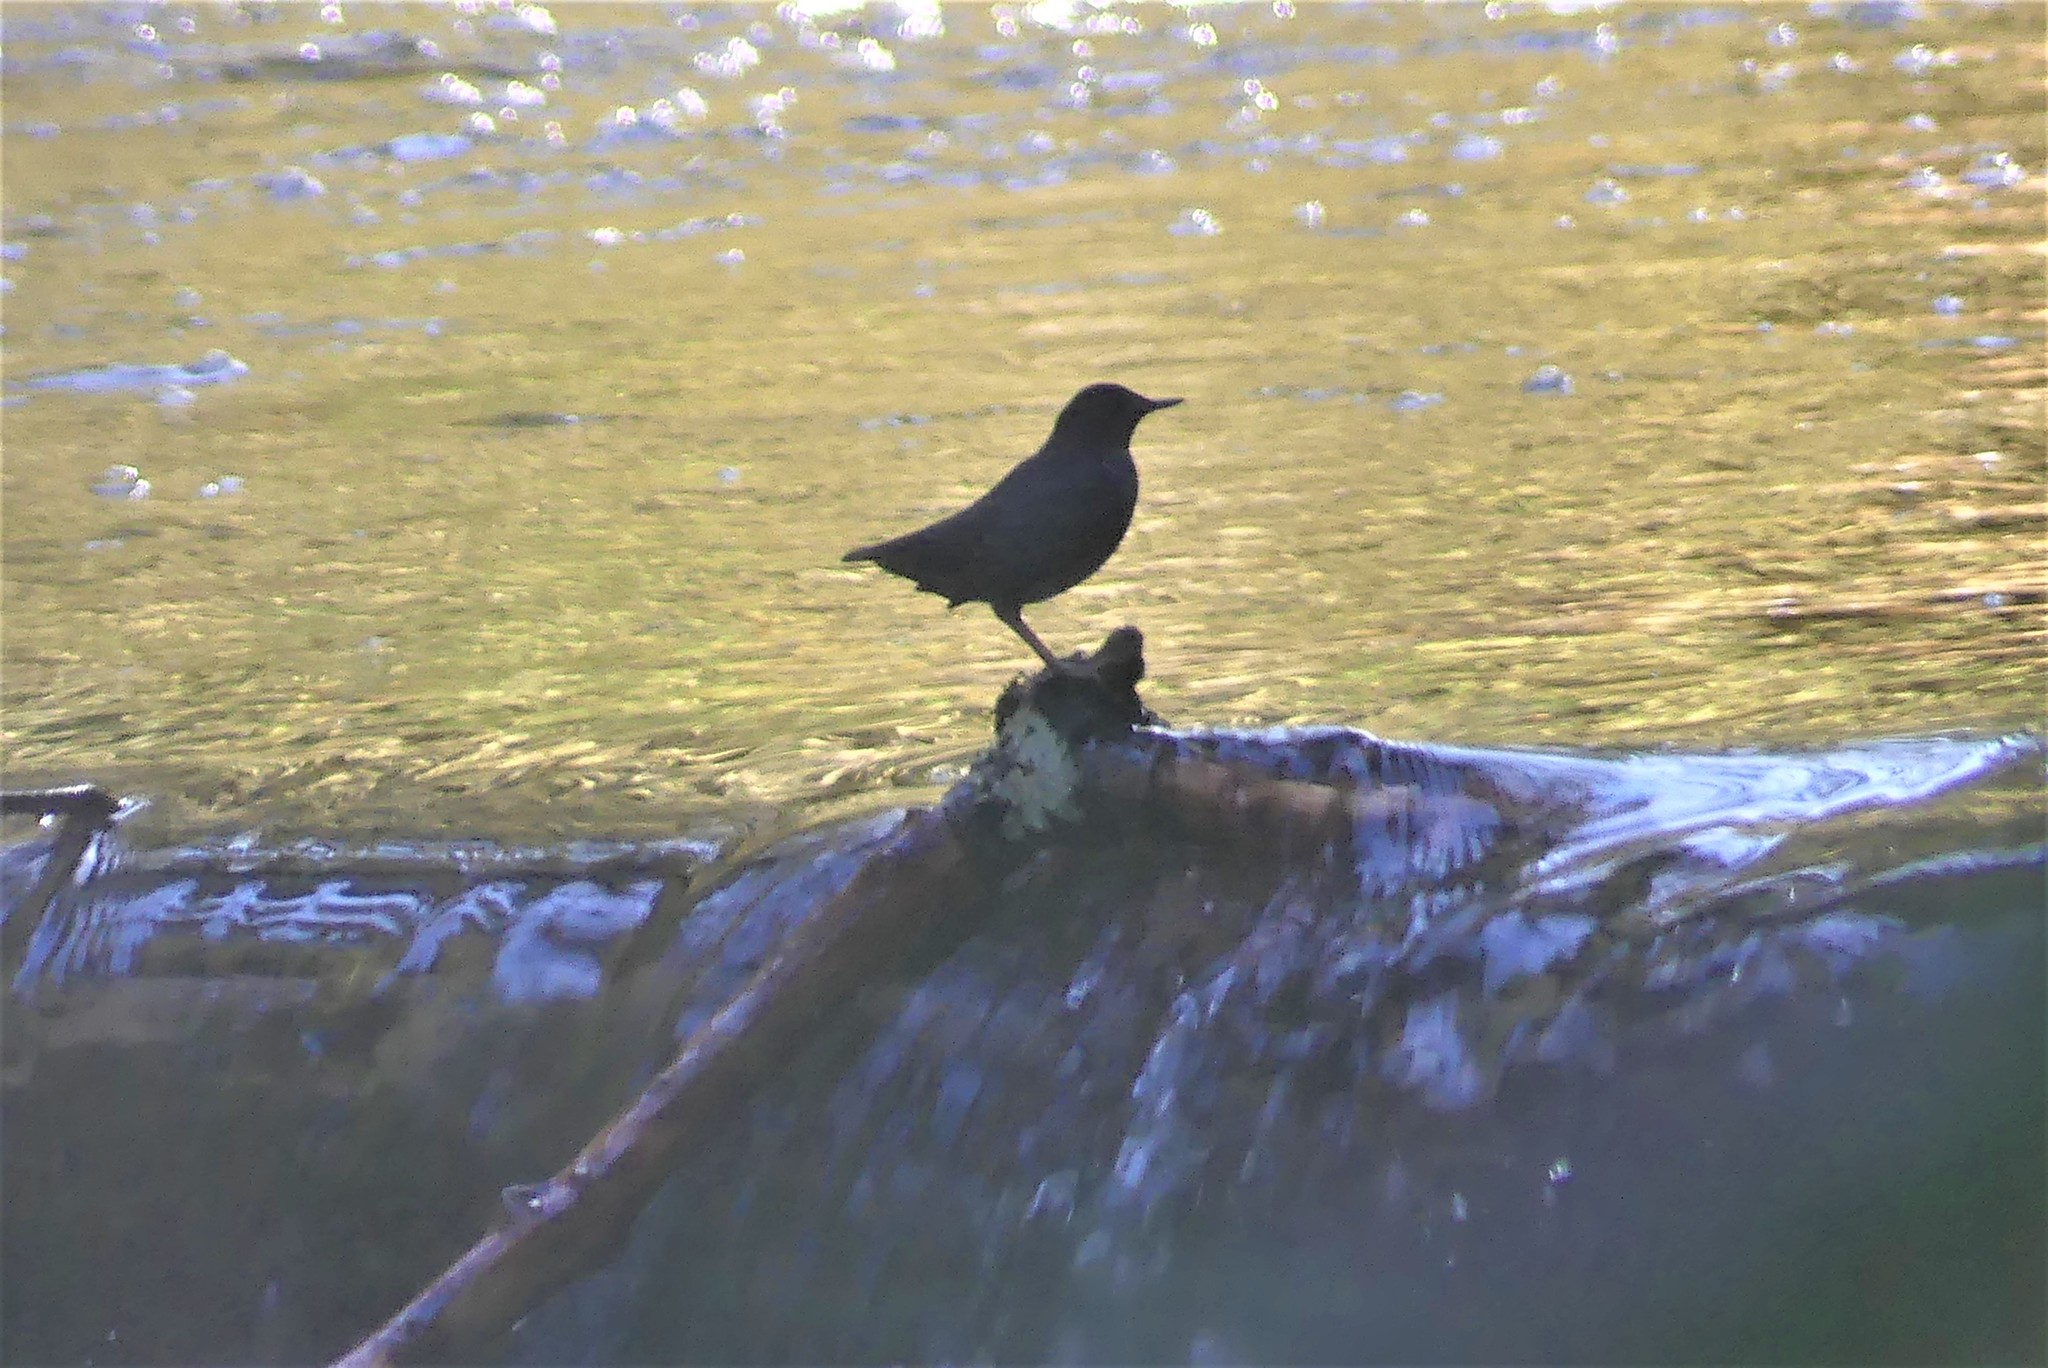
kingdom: Animalia
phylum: Chordata
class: Aves
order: Passeriformes
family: Cinclidae
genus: Cinclus
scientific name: Cinclus mexicanus
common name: American dipper
